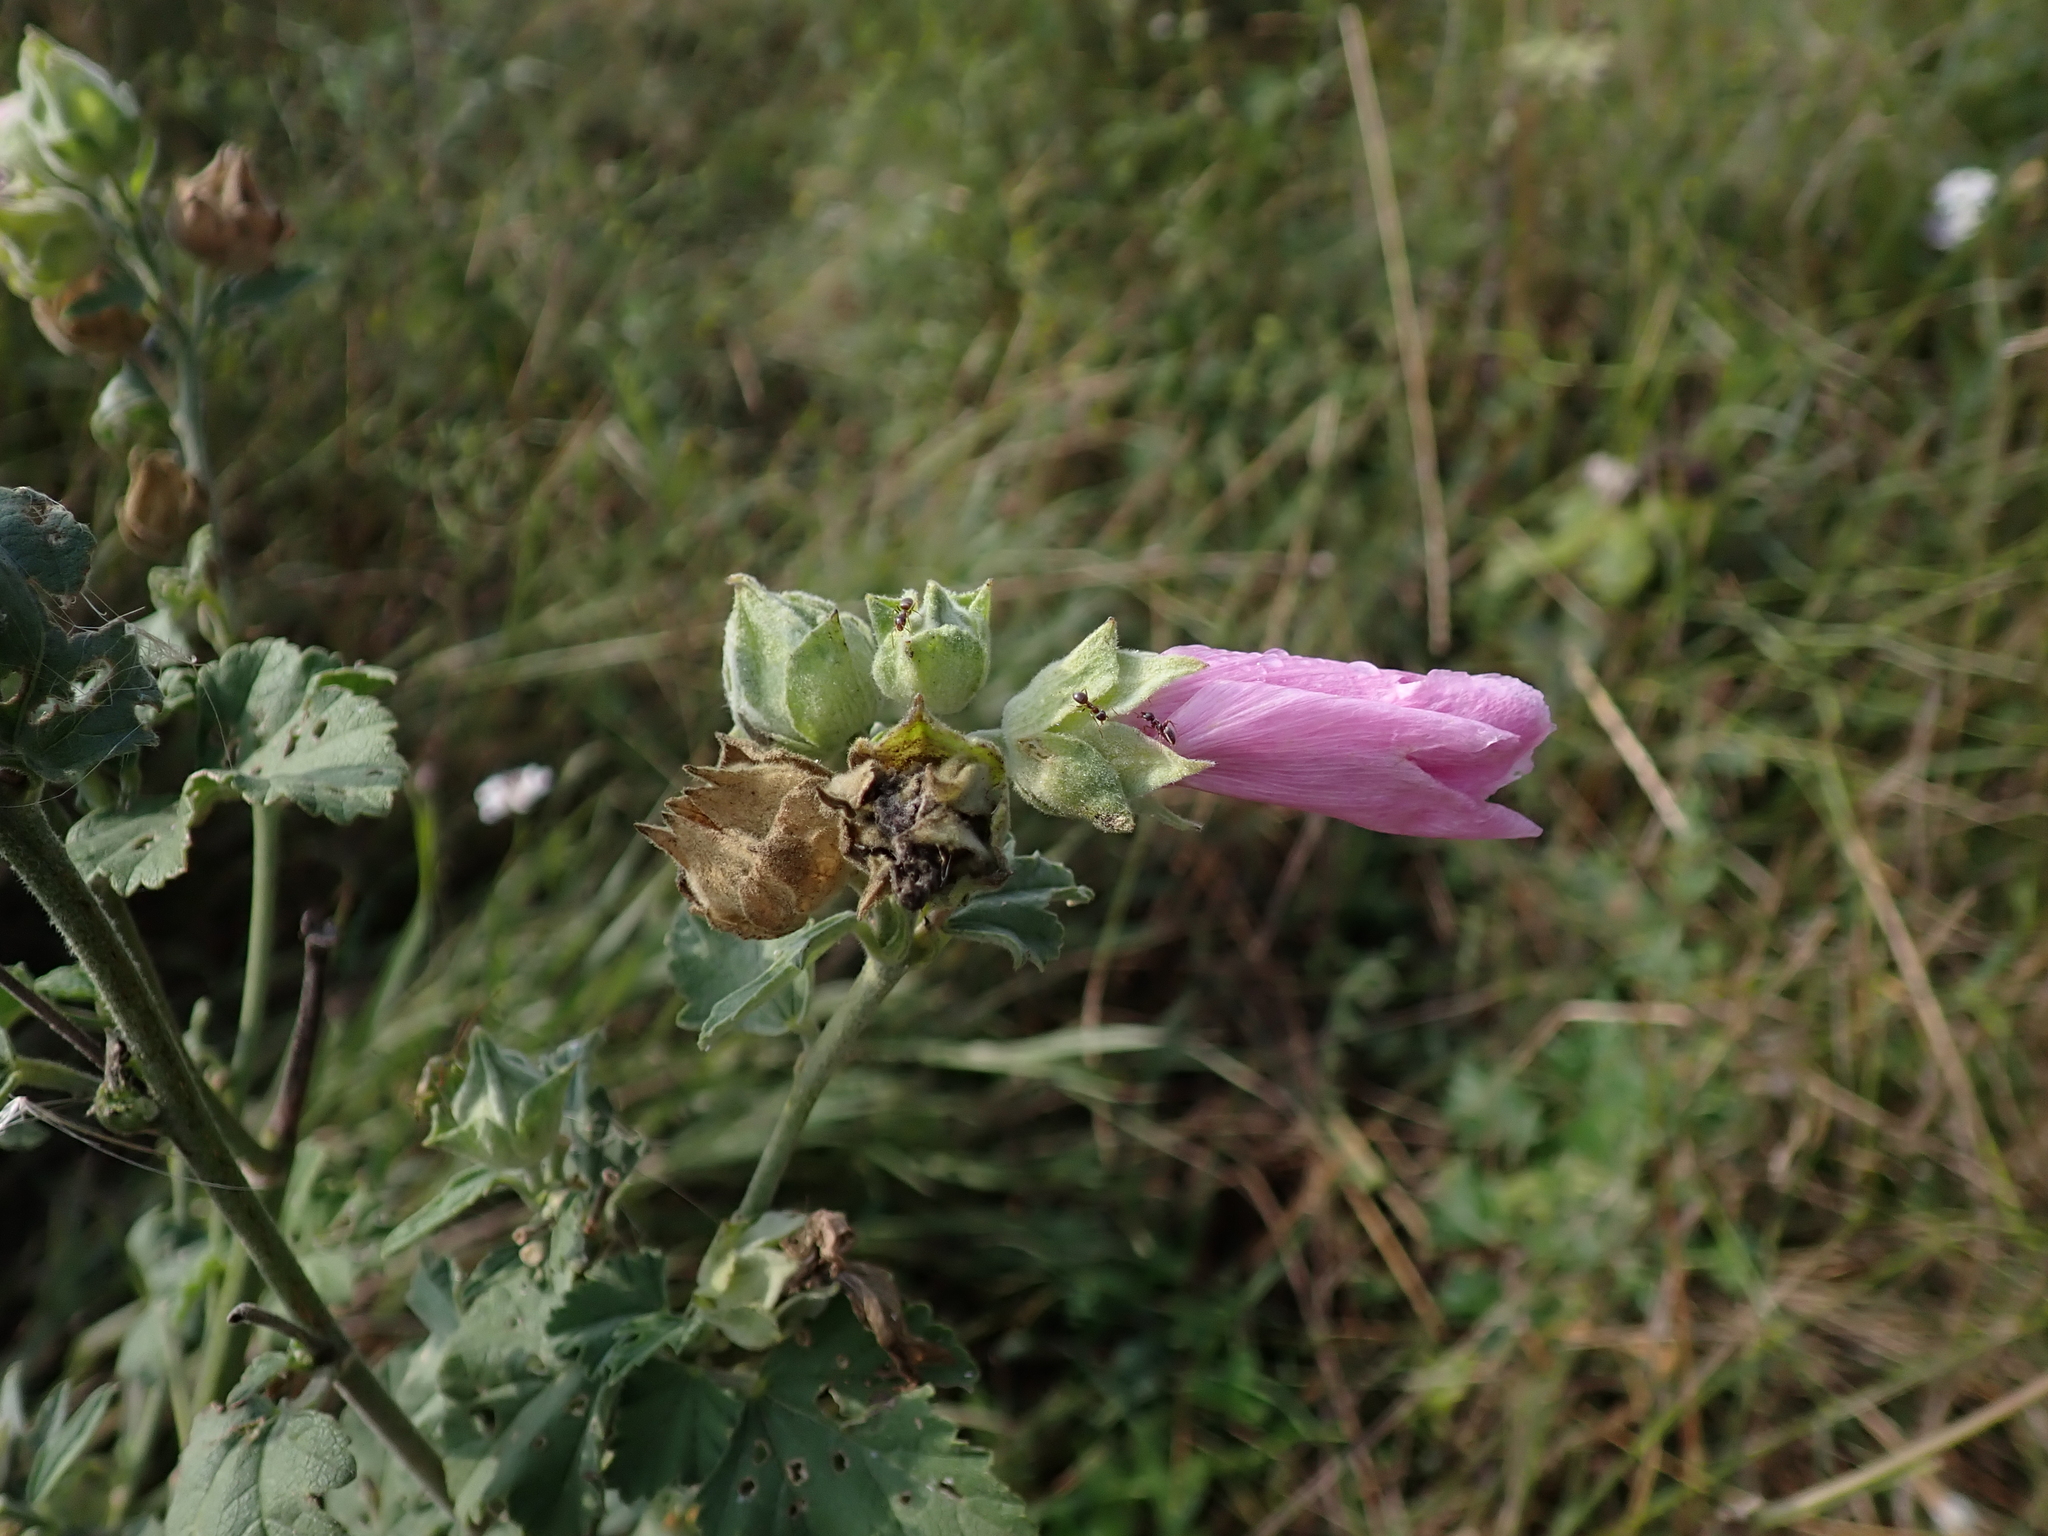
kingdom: Plantae
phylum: Tracheophyta
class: Magnoliopsida
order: Malvales
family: Malvaceae
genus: Malva
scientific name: Malva thuringiaca
